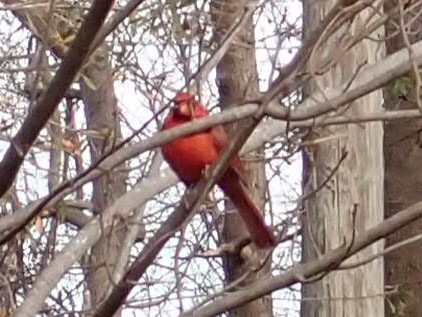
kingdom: Animalia
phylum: Chordata
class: Aves
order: Passeriformes
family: Cardinalidae
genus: Cardinalis
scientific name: Cardinalis cardinalis
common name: Northern cardinal
